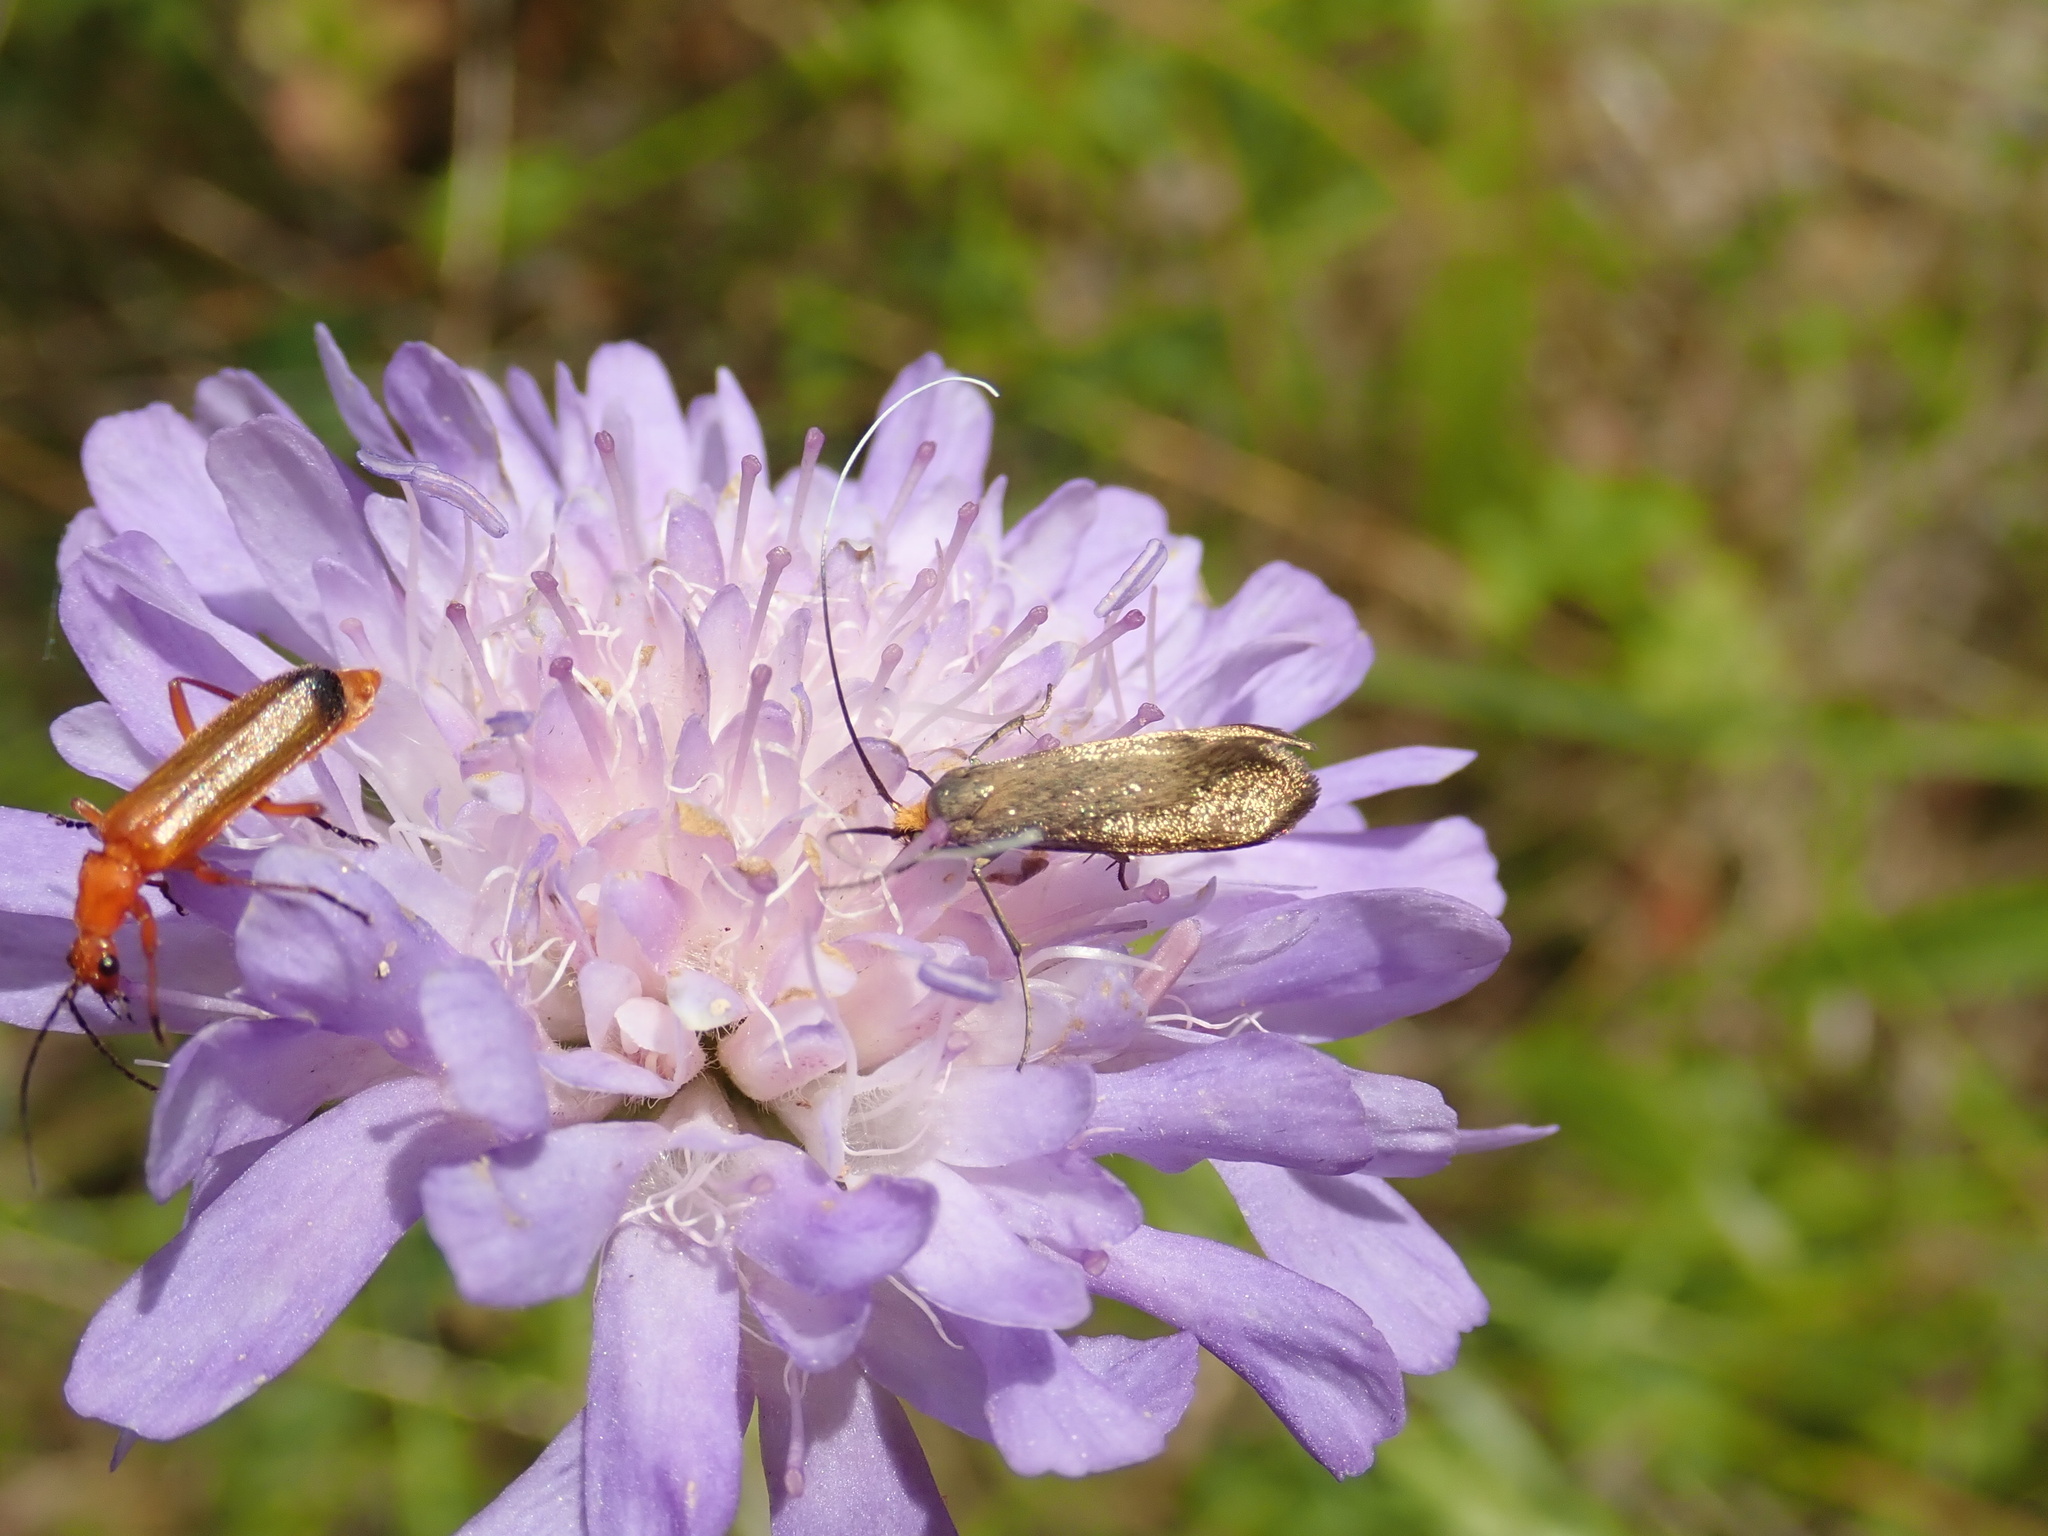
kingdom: Animalia
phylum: Arthropoda
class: Insecta
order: Lepidoptera
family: Adelidae
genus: Nemophora
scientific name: Nemophora metallica
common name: Brassy long-horn
